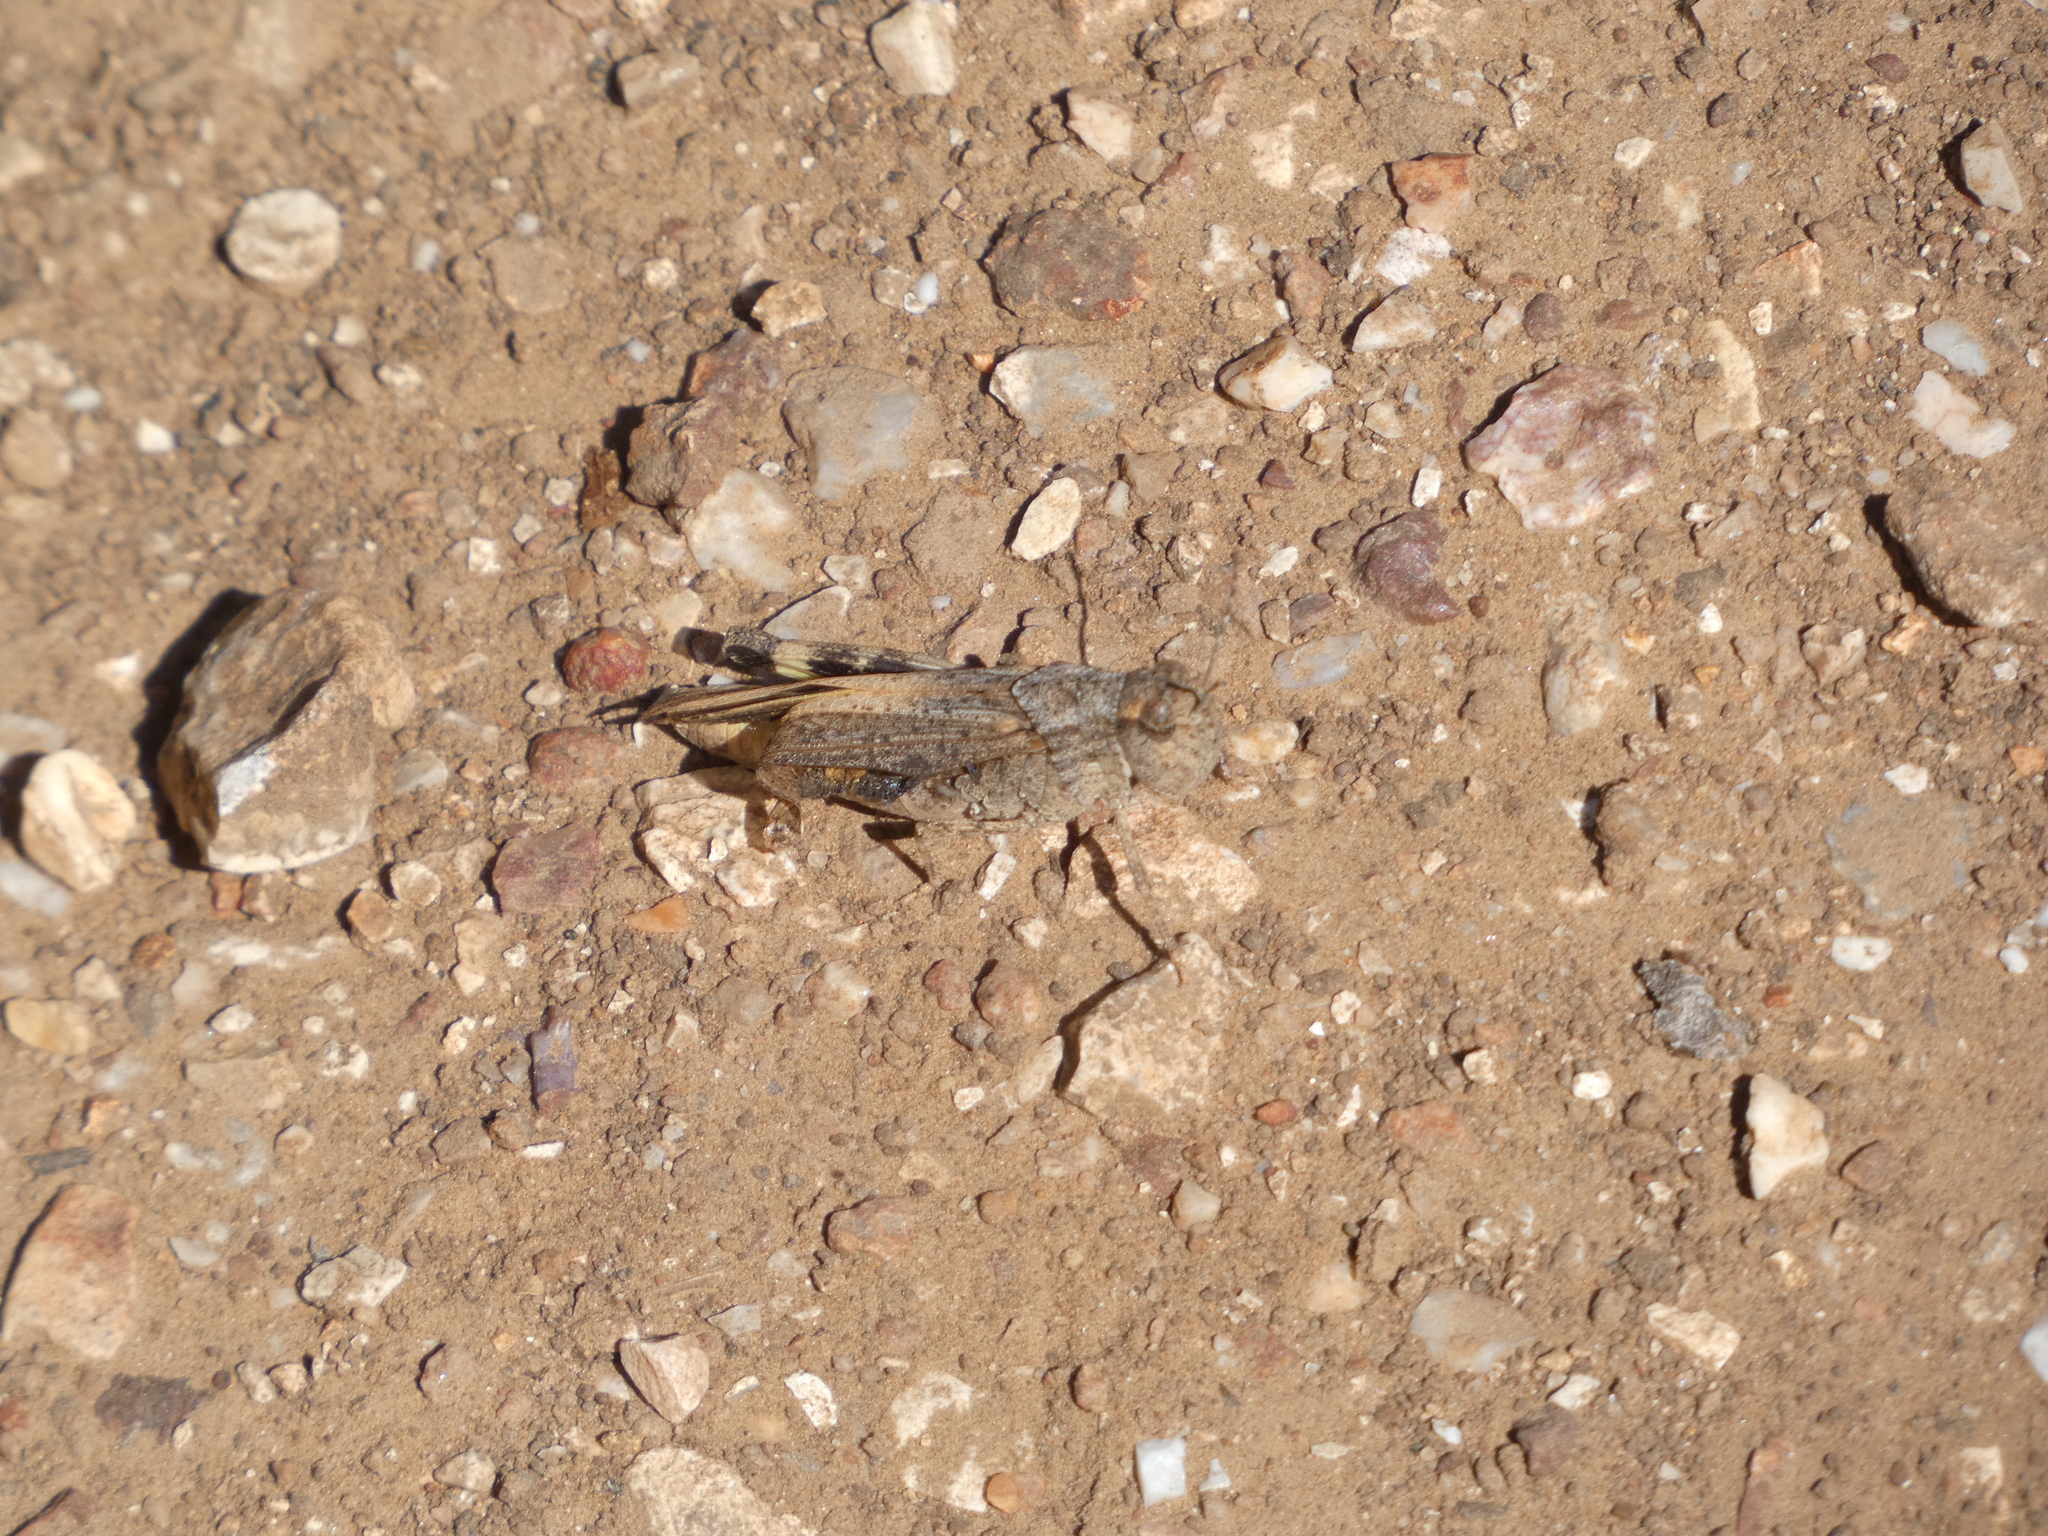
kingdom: Animalia
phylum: Arthropoda
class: Insecta
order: Orthoptera
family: Acrididae
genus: Arphia
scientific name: Arphia conspersa
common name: Speckle-winged rangeland grasshopper
